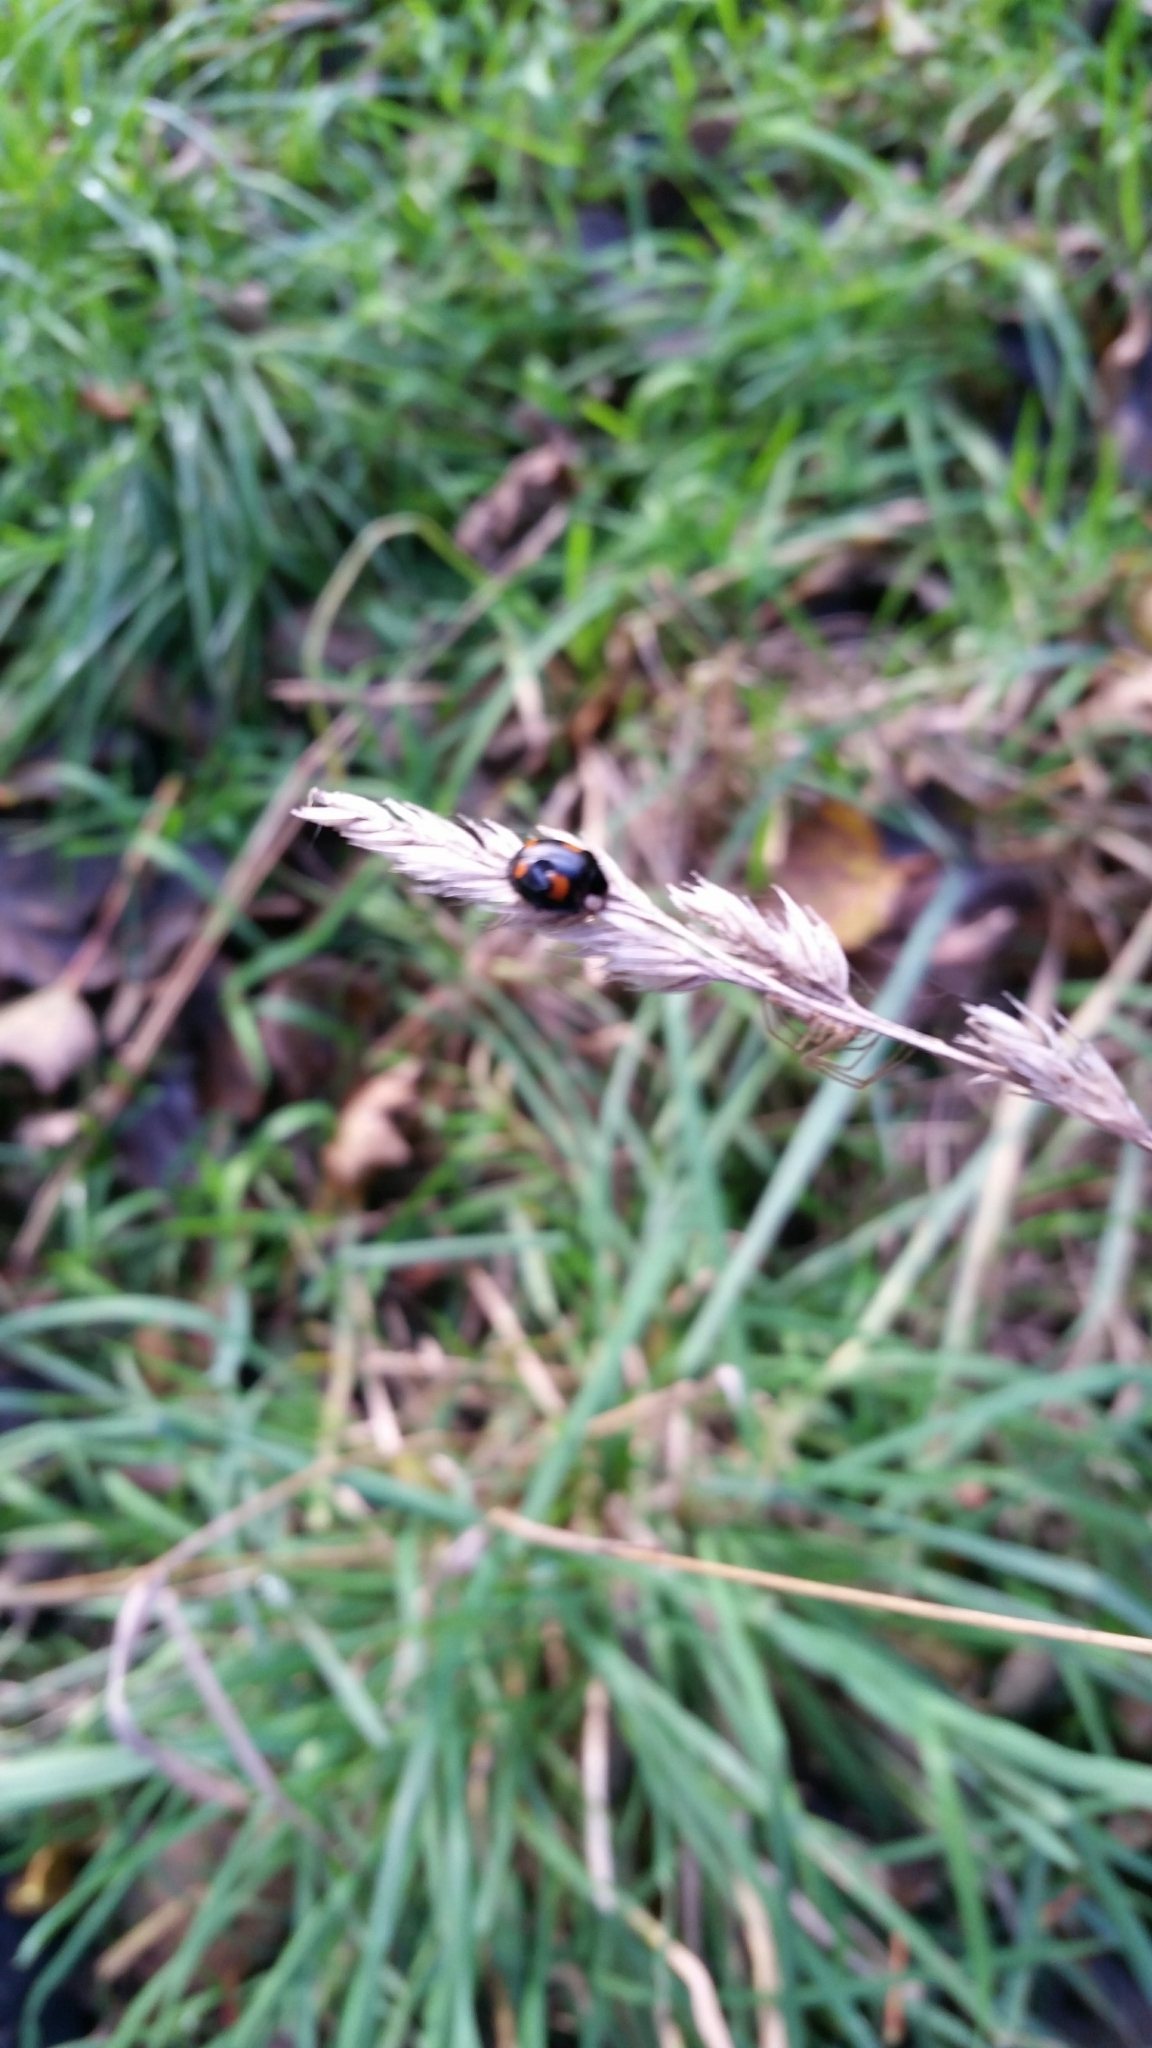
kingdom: Animalia
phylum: Arthropoda
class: Insecta
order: Coleoptera
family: Coccinellidae
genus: Harmonia
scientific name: Harmonia axyridis
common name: Harlequin ladybird
